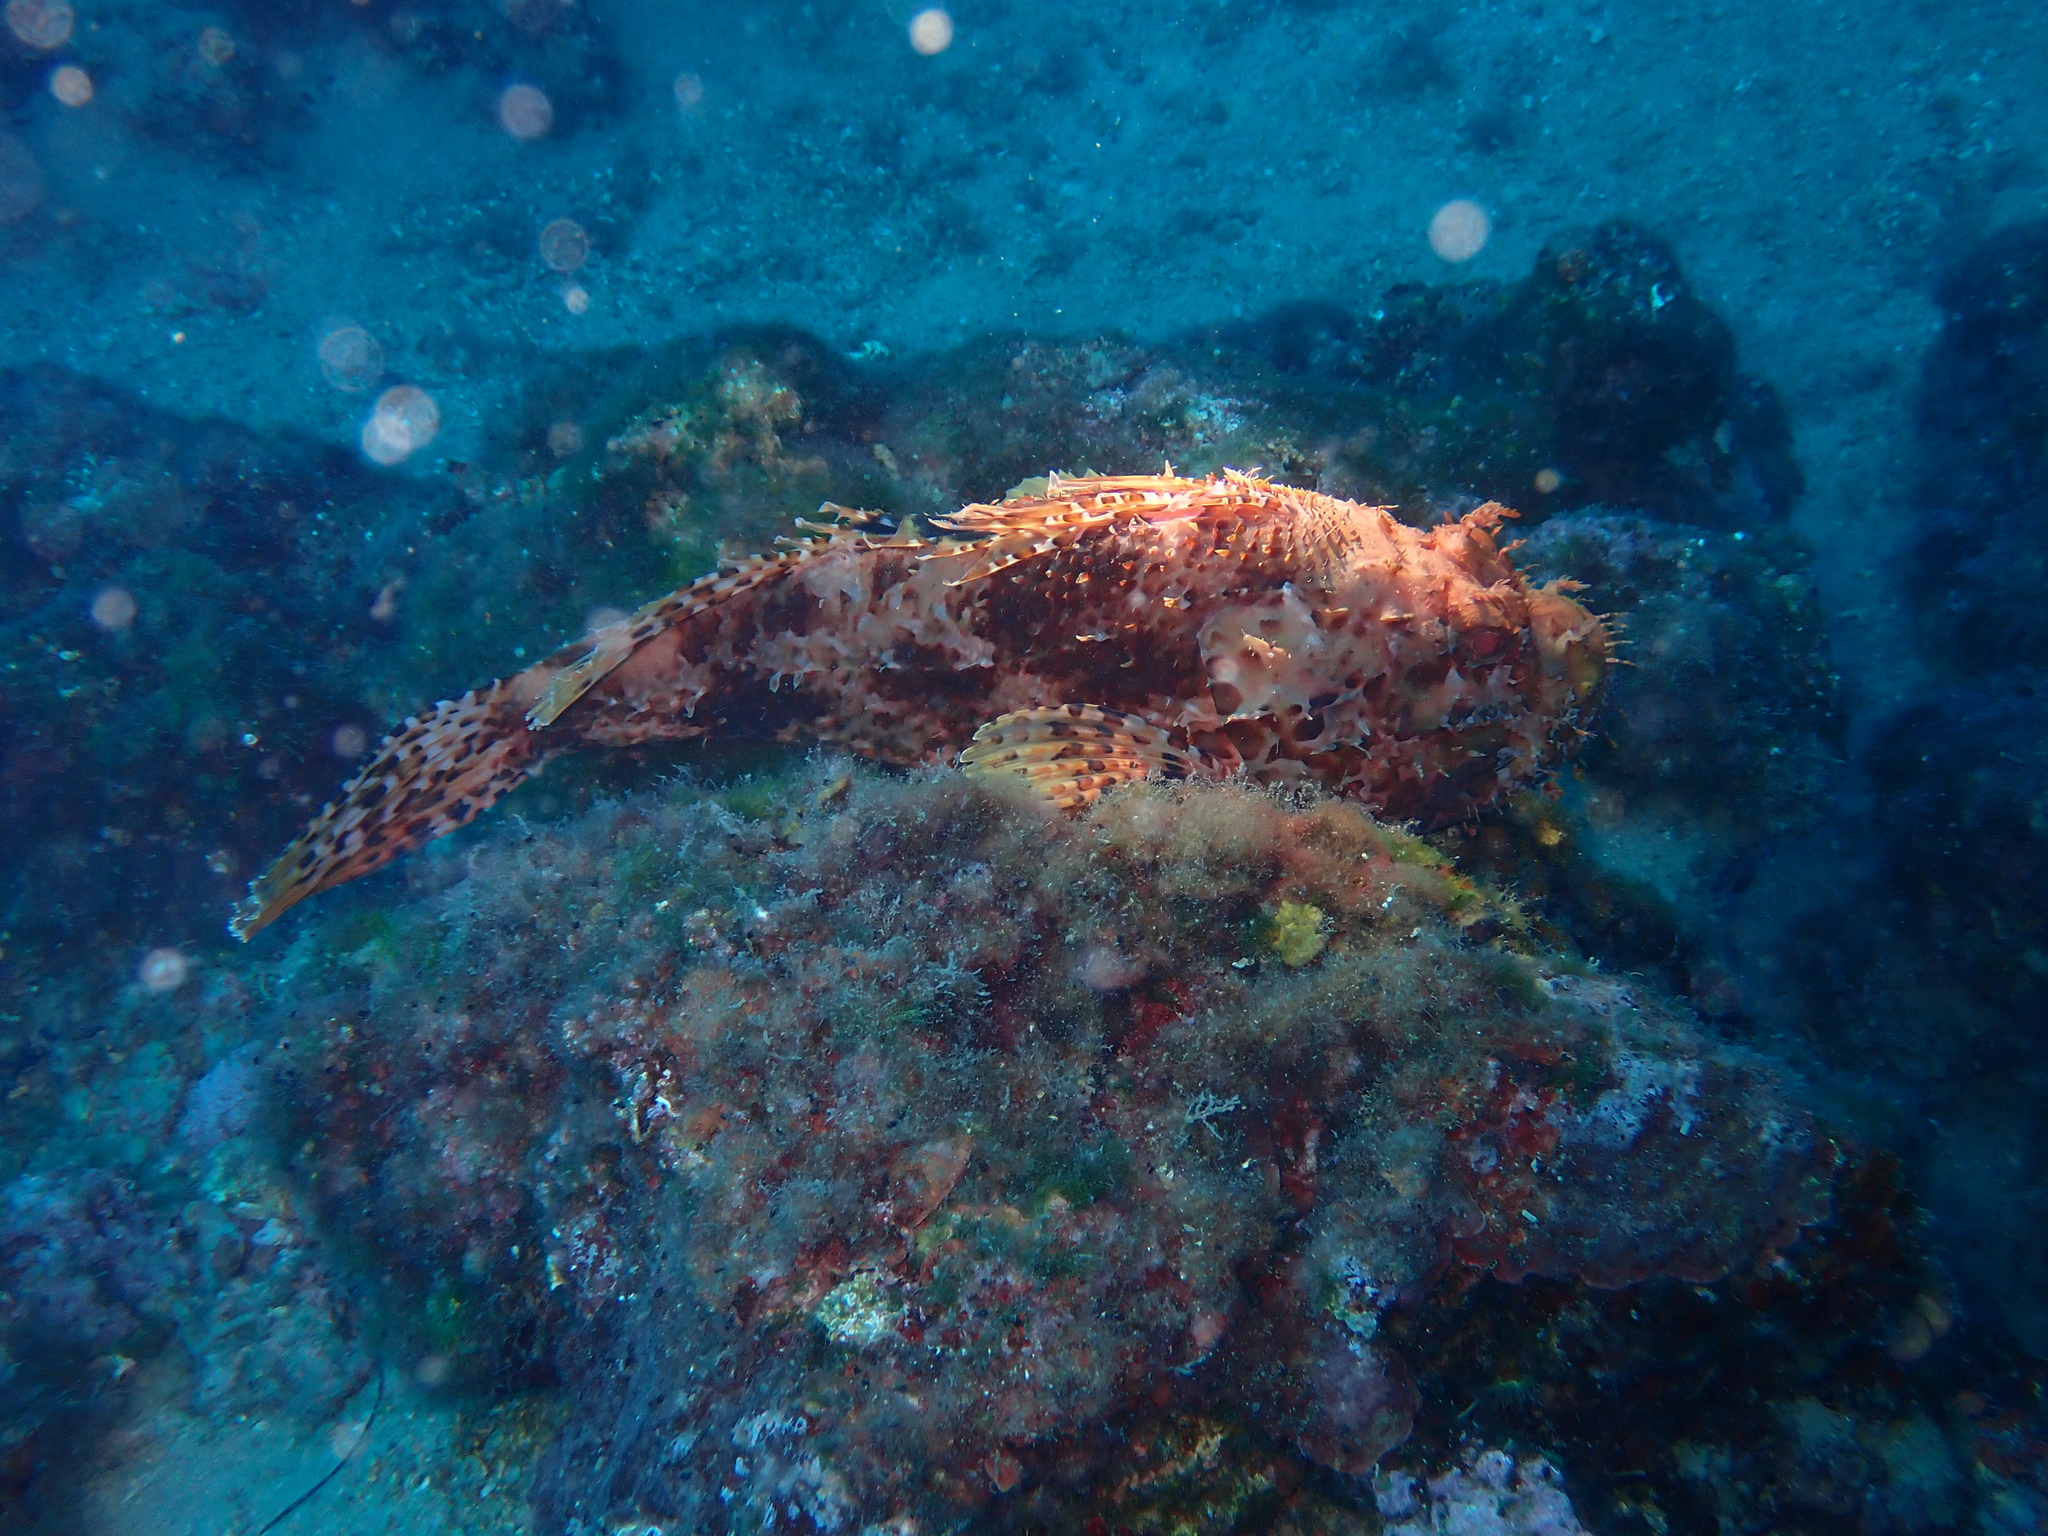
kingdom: Animalia
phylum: Chordata
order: Scorpaeniformes
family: Scorpaenidae
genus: Scorpaena
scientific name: Scorpaena scrofa
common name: Red scorpionfish
